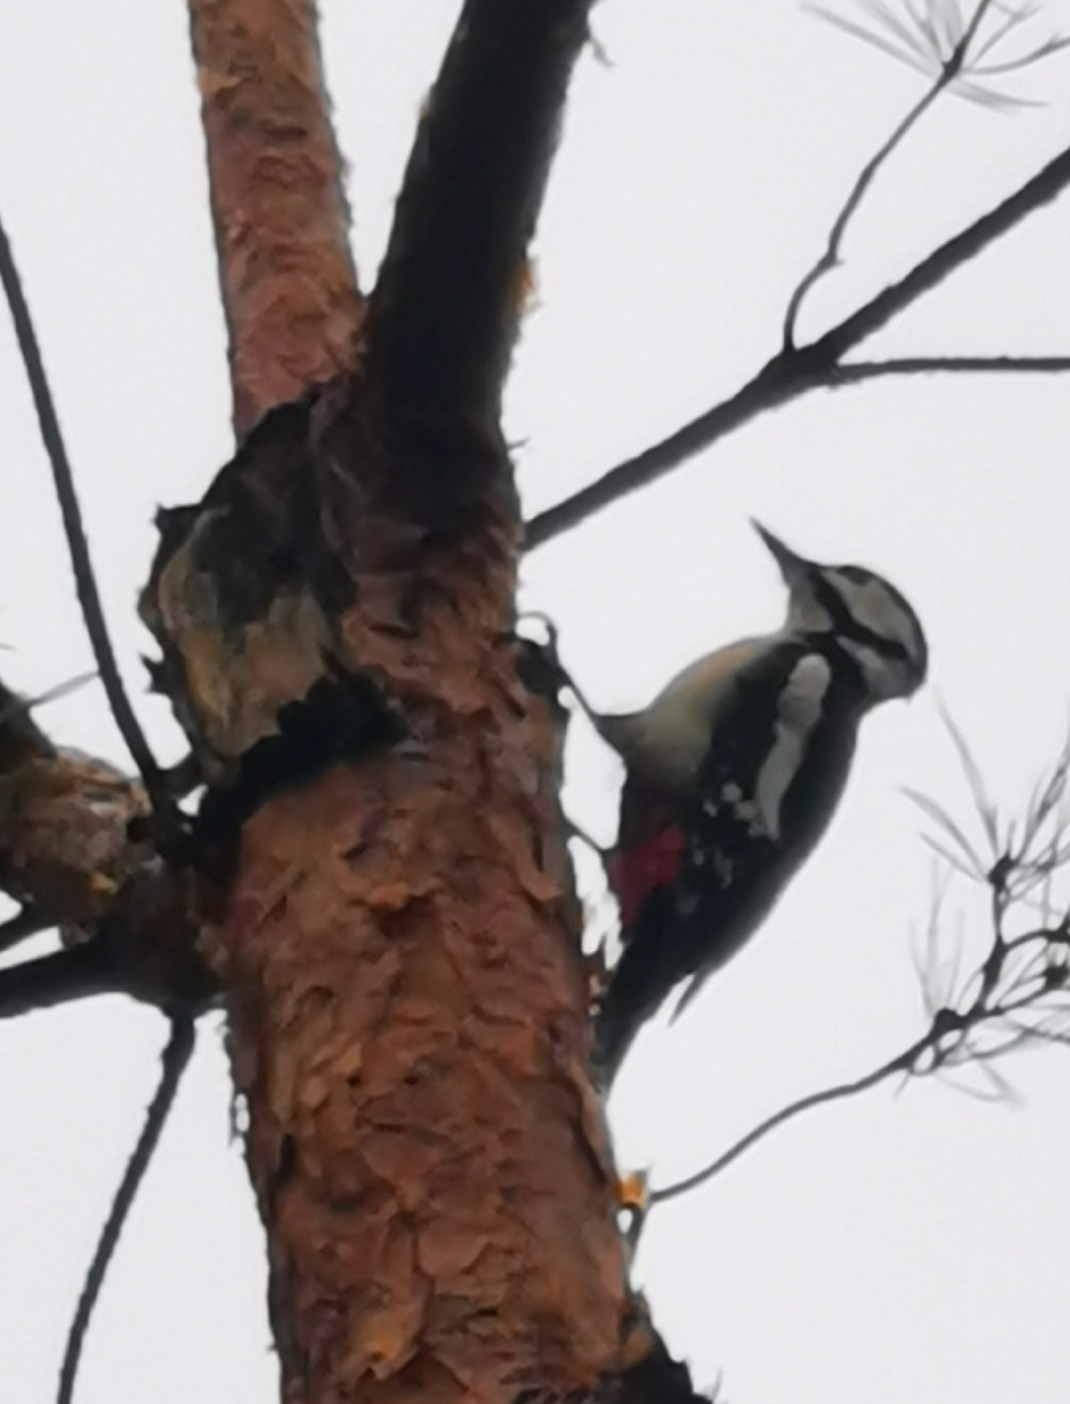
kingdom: Animalia
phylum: Chordata
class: Aves
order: Piciformes
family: Picidae
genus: Dendrocopos
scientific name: Dendrocopos major
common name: Great spotted woodpecker
